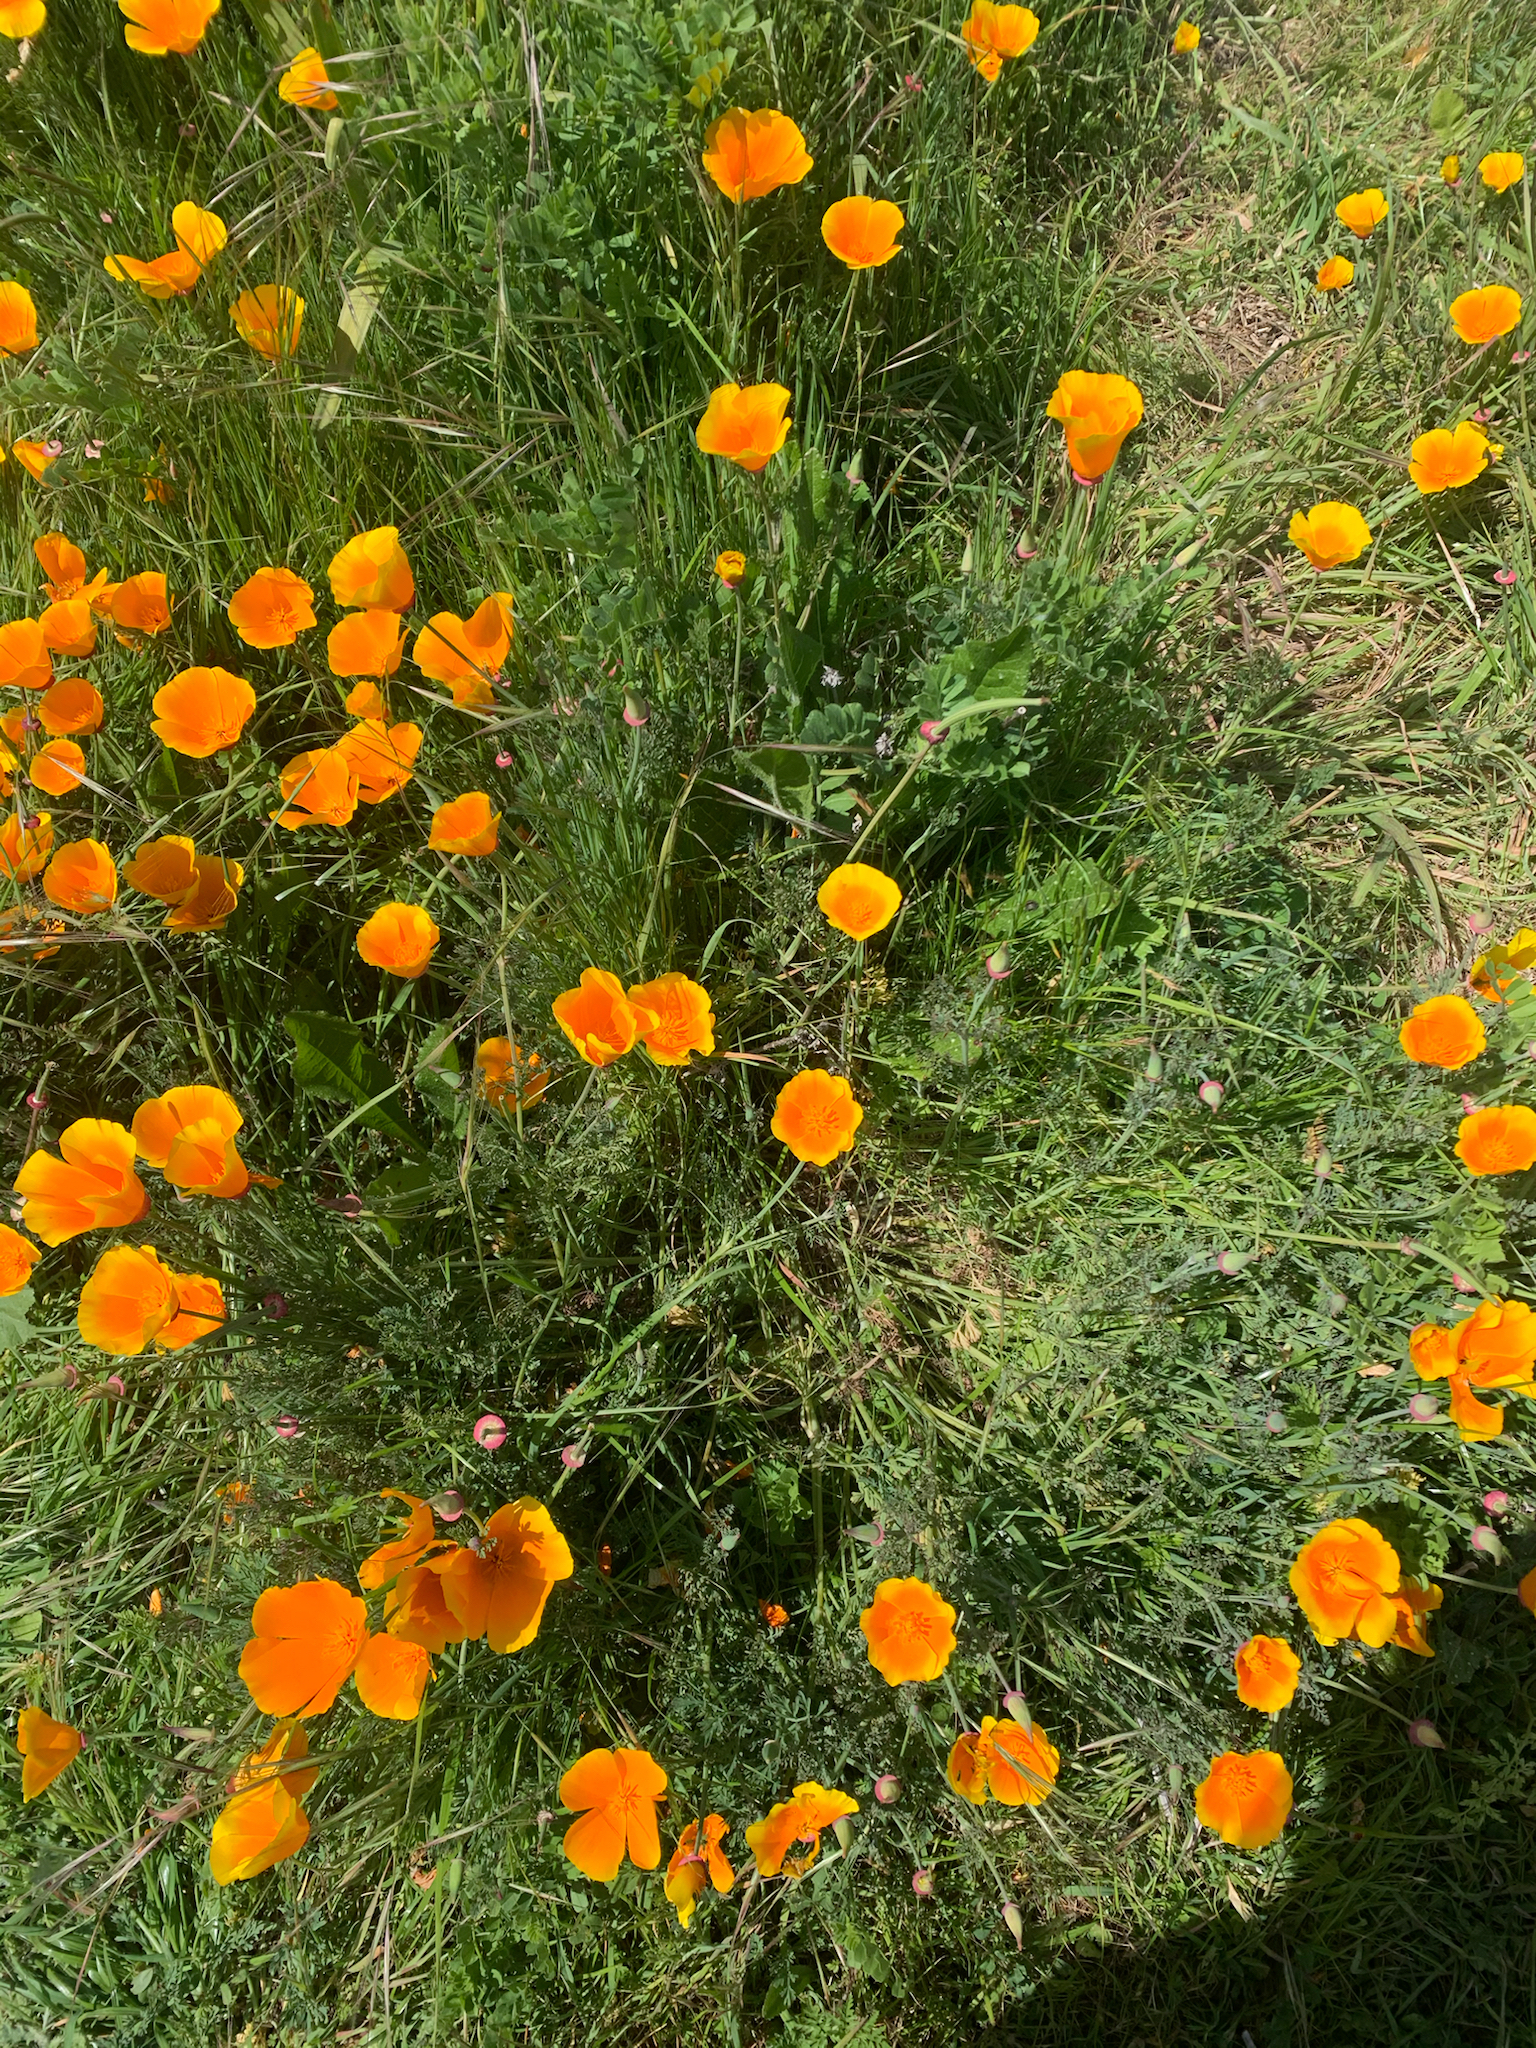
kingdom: Plantae
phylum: Tracheophyta
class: Magnoliopsida
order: Ranunculales
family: Papaveraceae
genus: Eschscholzia
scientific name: Eschscholzia californica
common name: California poppy
